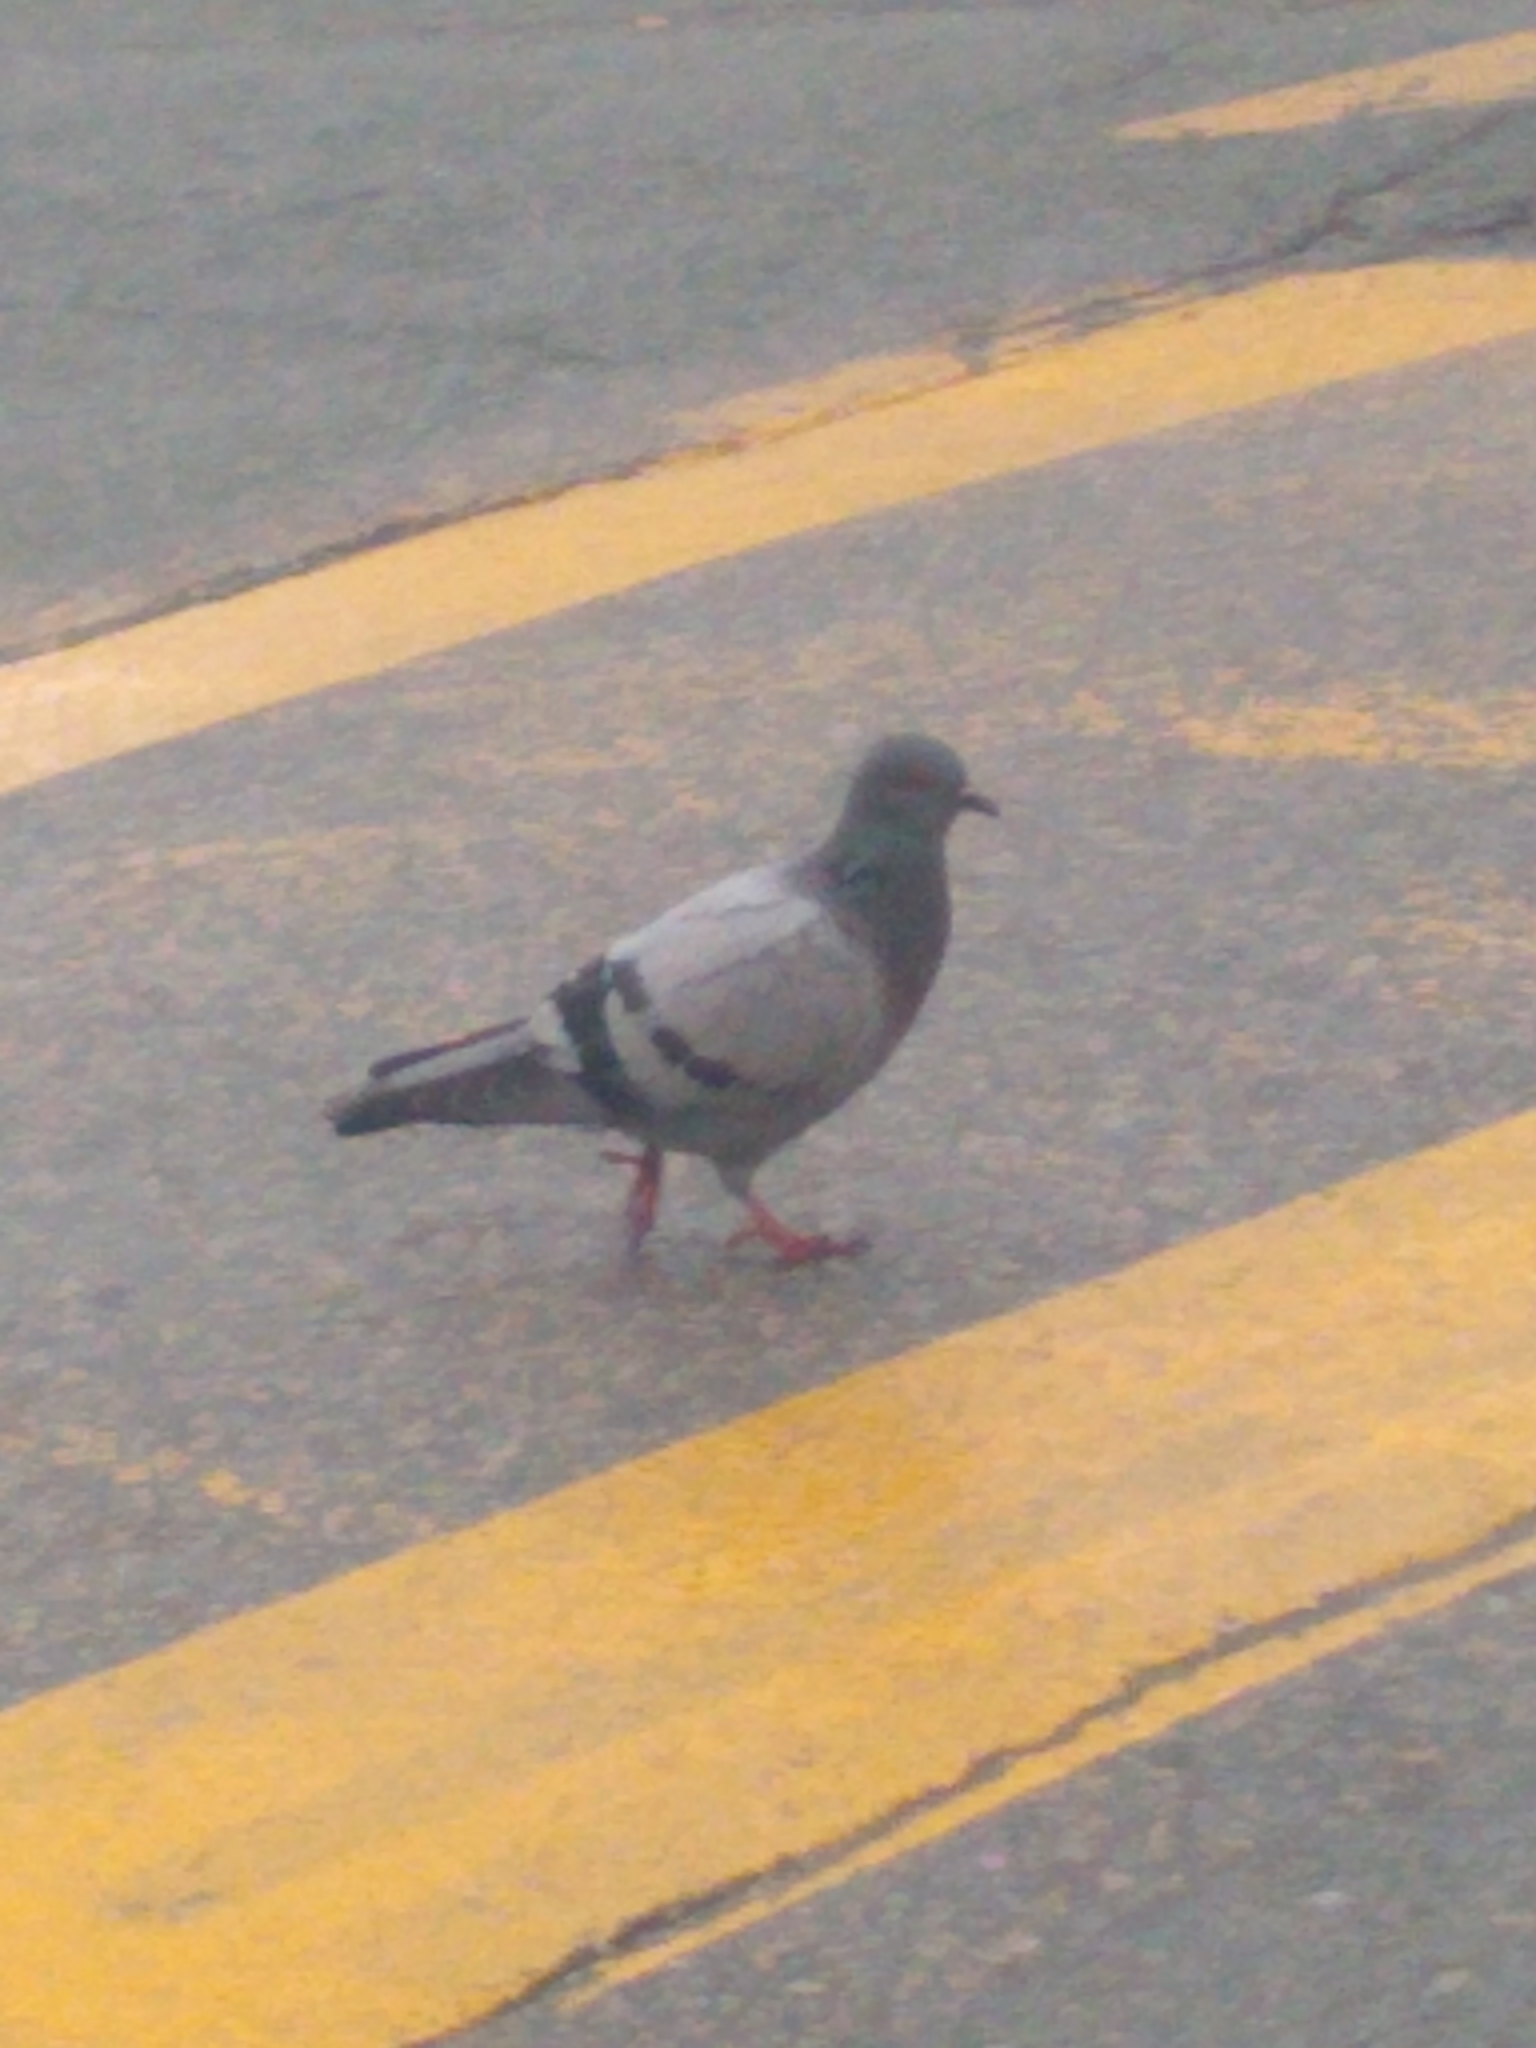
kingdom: Animalia
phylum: Chordata
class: Aves
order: Columbiformes
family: Columbidae
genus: Columba
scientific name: Columba livia
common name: Rock pigeon
